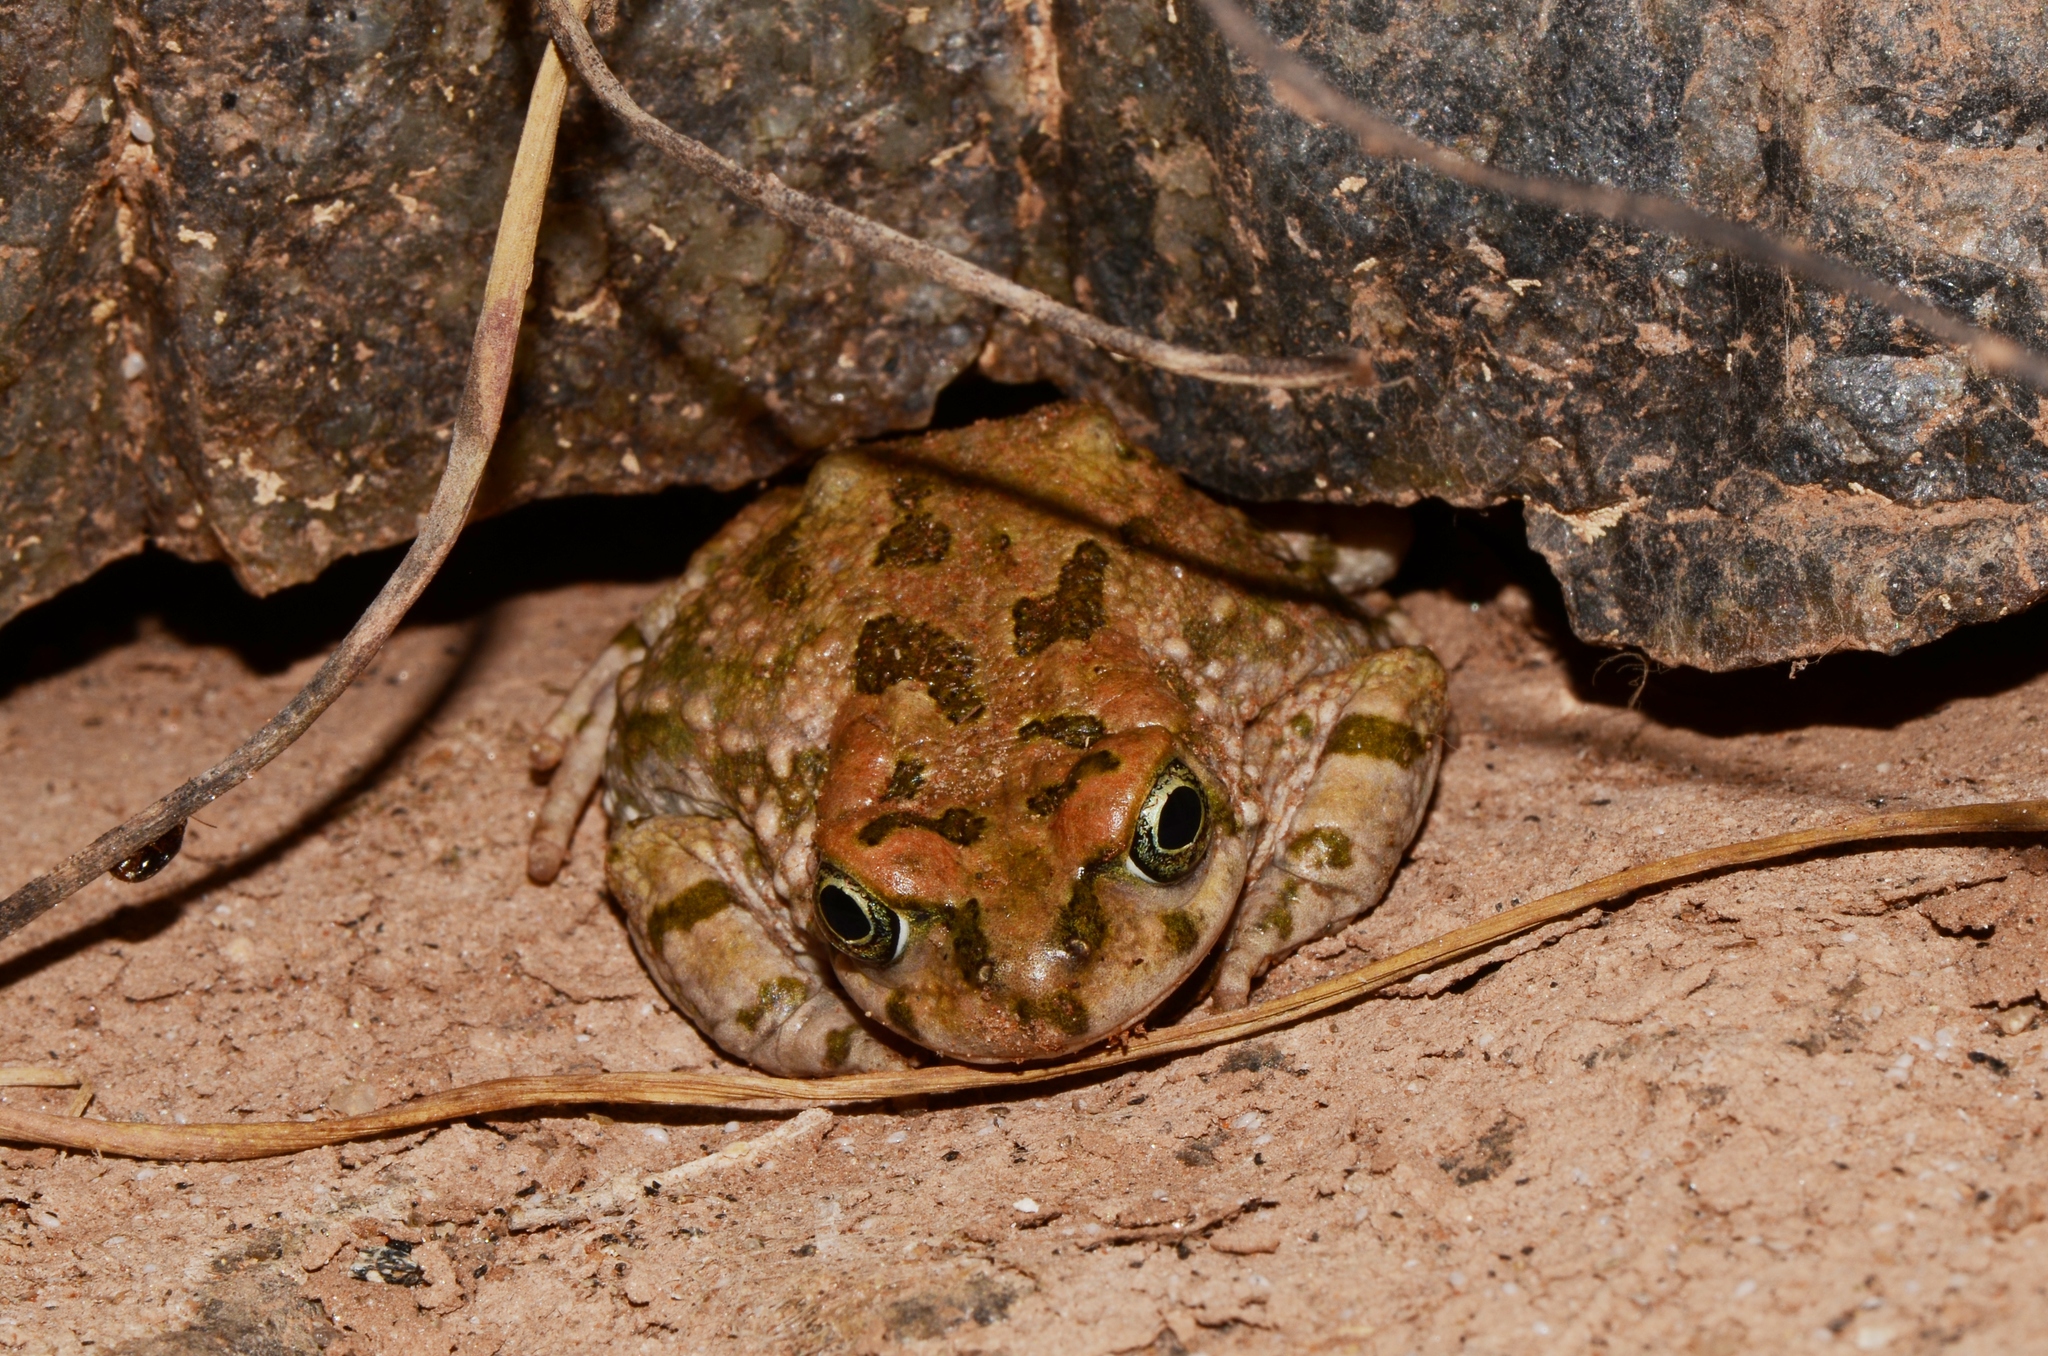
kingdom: Animalia
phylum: Chordata
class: Amphibia
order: Anura
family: Bufonidae
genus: Vandijkophrynus
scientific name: Vandijkophrynus robinsoni
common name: Paradise toad
